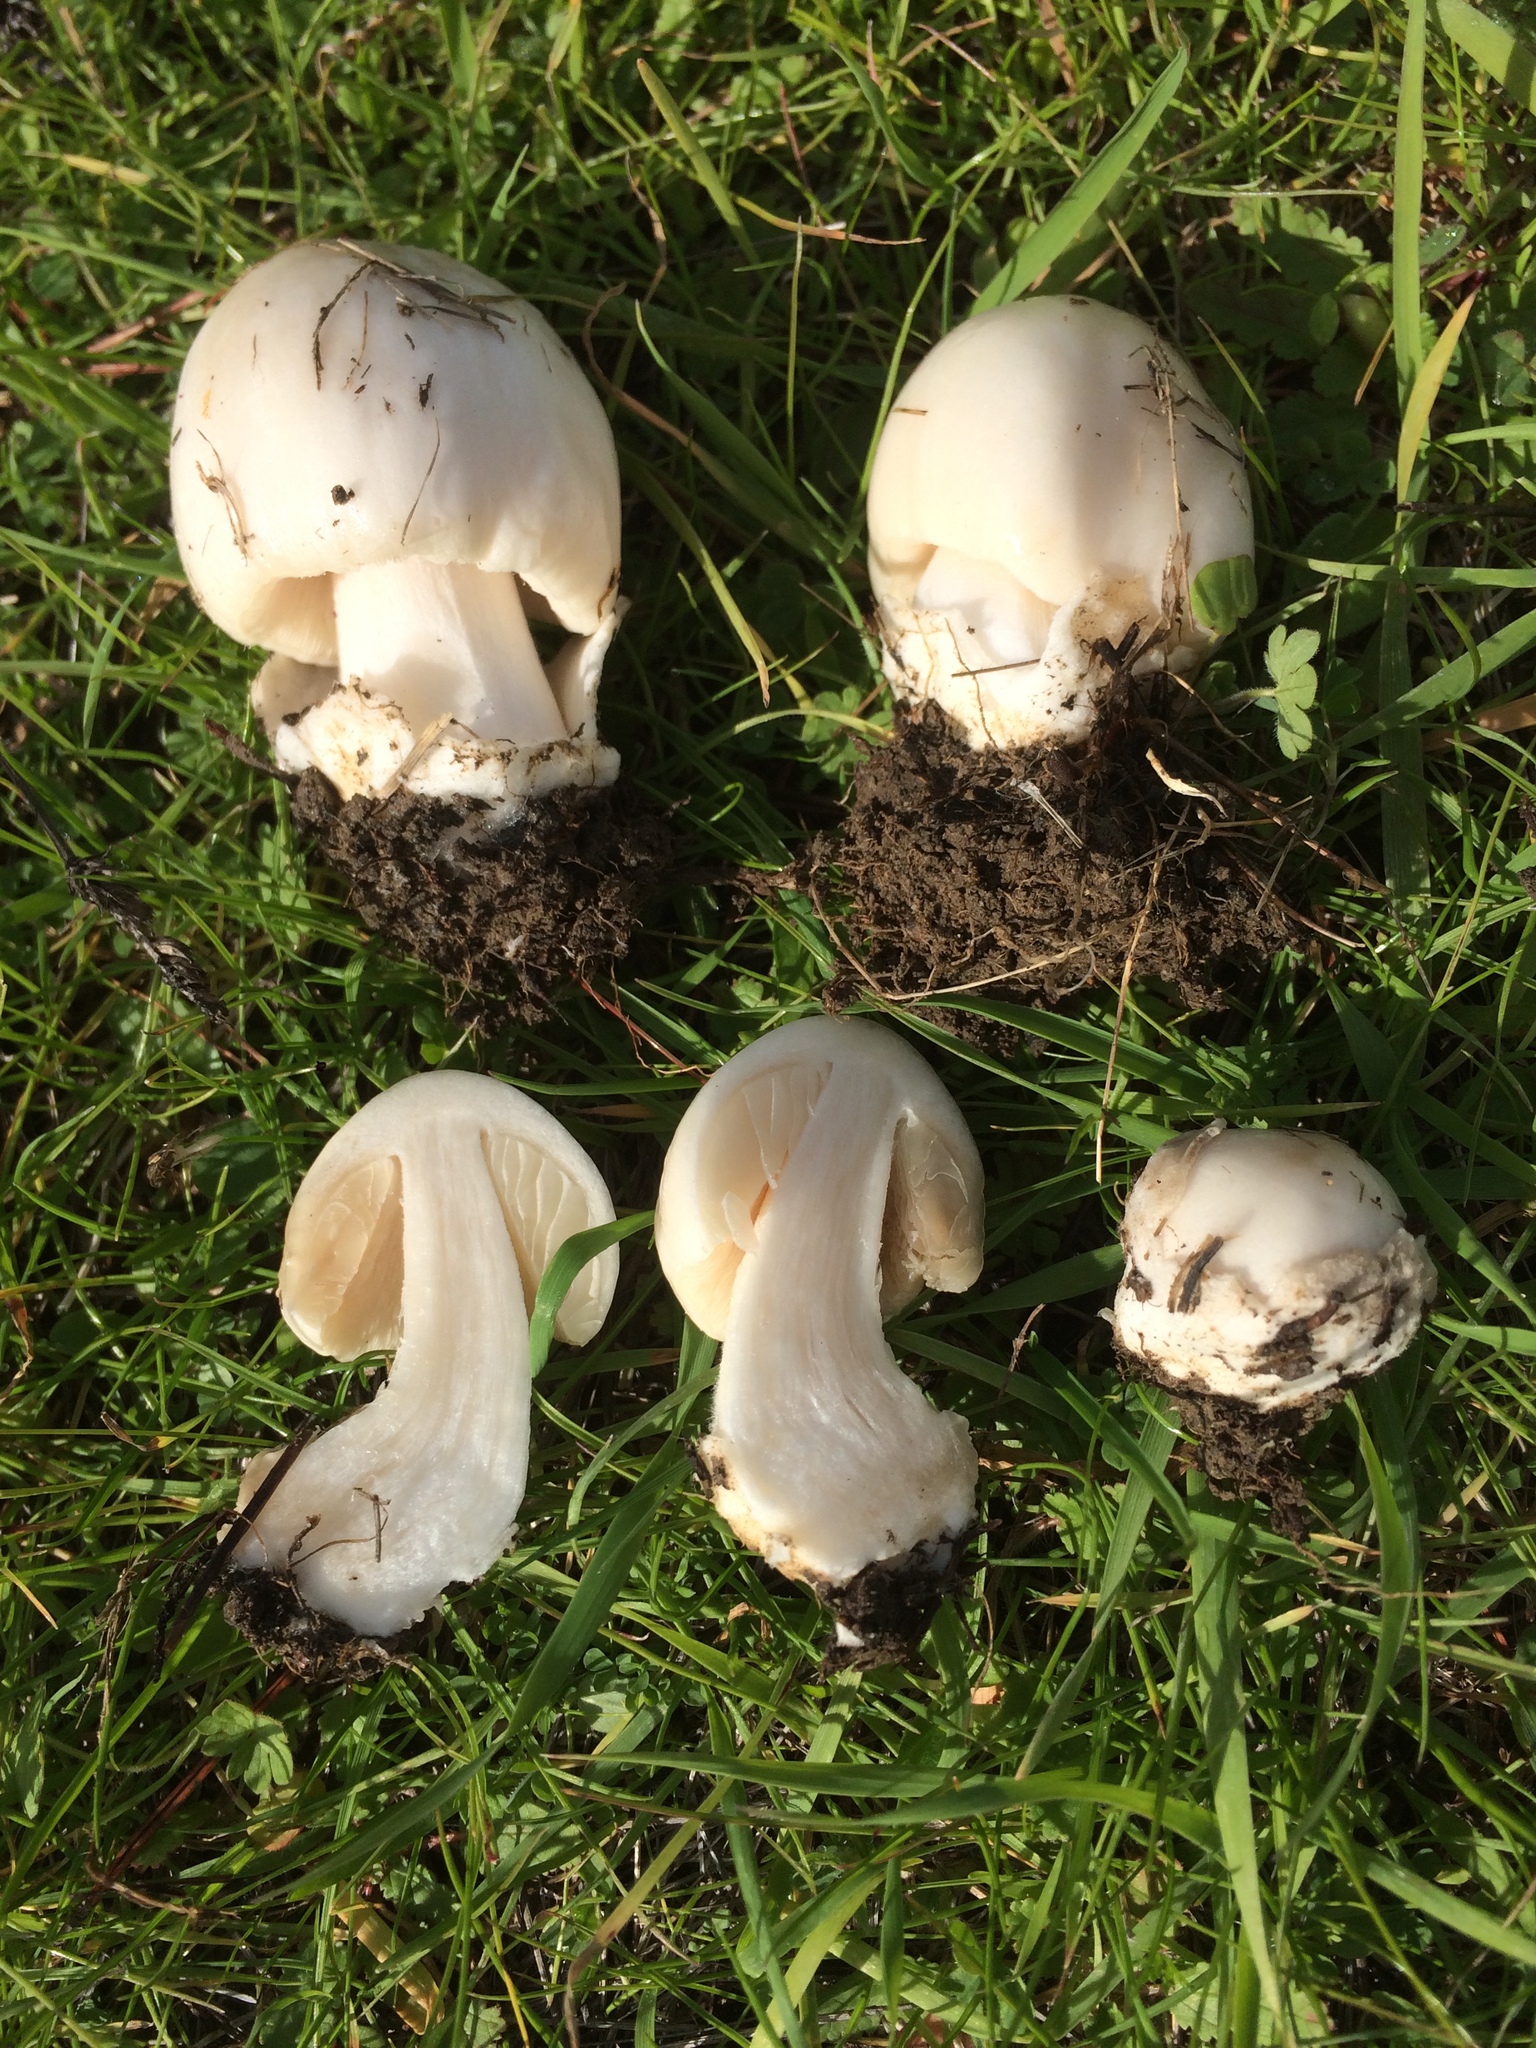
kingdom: Fungi
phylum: Basidiomycota
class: Agaricomycetes
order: Agaricales
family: Pluteaceae
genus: Volvopluteus
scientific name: Volvopluteus gloiocephalus
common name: Stubble rosegill
